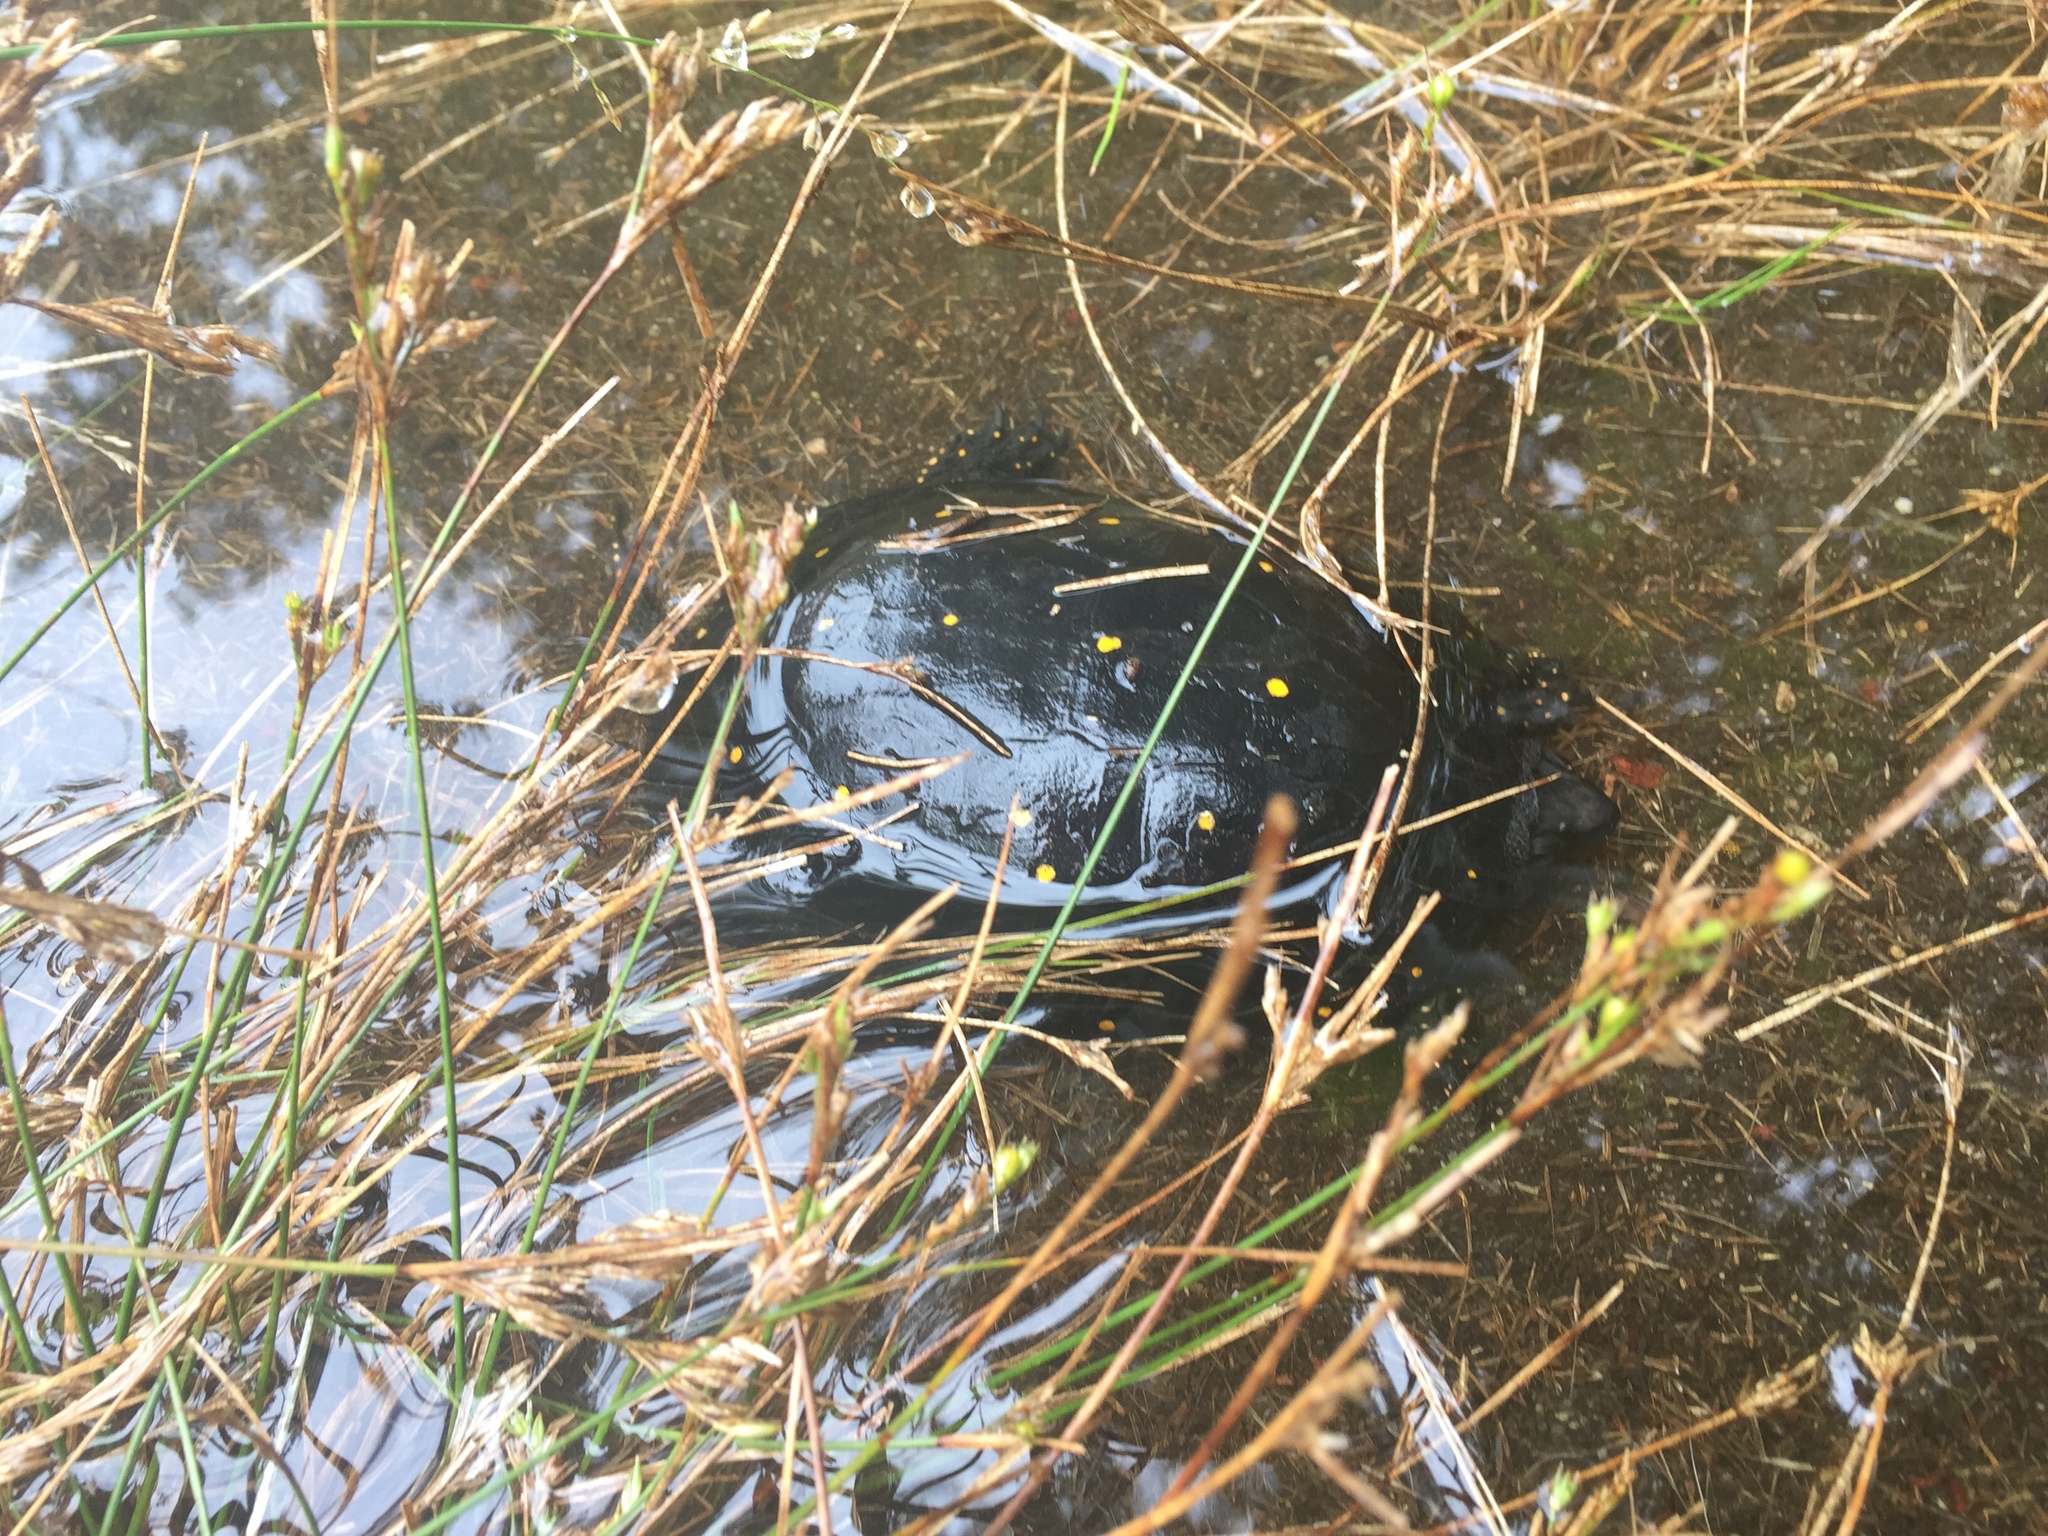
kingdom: Animalia
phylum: Chordata
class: Testudines
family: Emydidae
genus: Clemmys
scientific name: Clemmys guttata
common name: Spotted turtle
